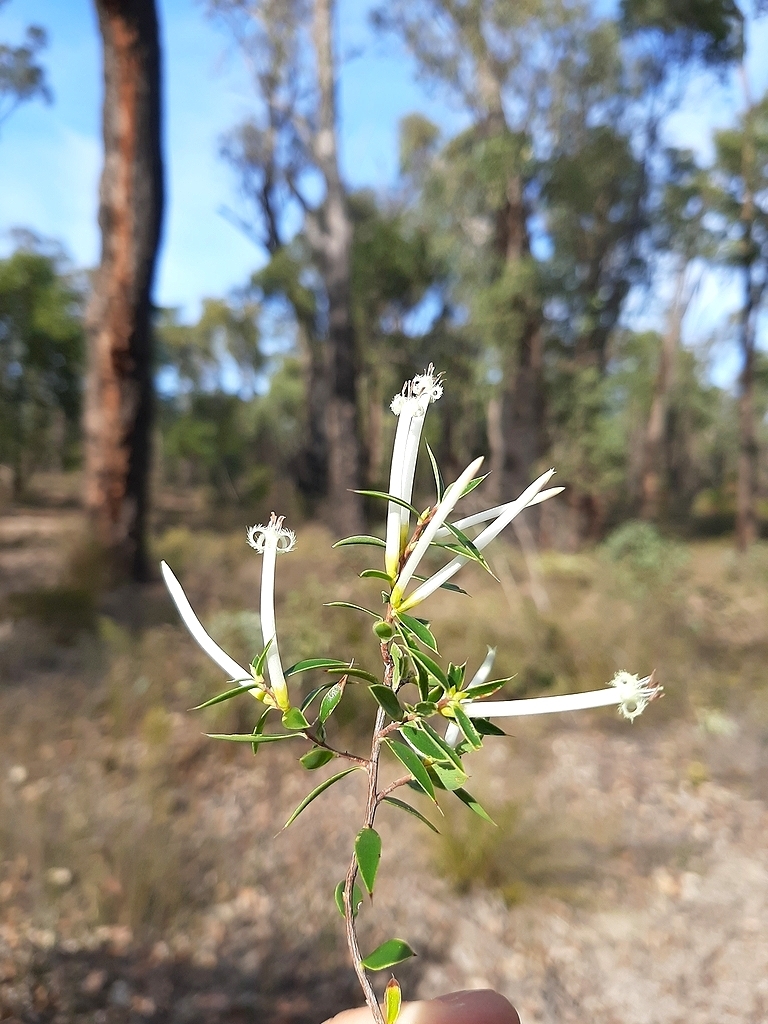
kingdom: Plantae
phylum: Tracheophyta
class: Magnoliopsida
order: Ericales
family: Ericaceae
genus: Styphelia
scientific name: Styphelia tenuiflora
